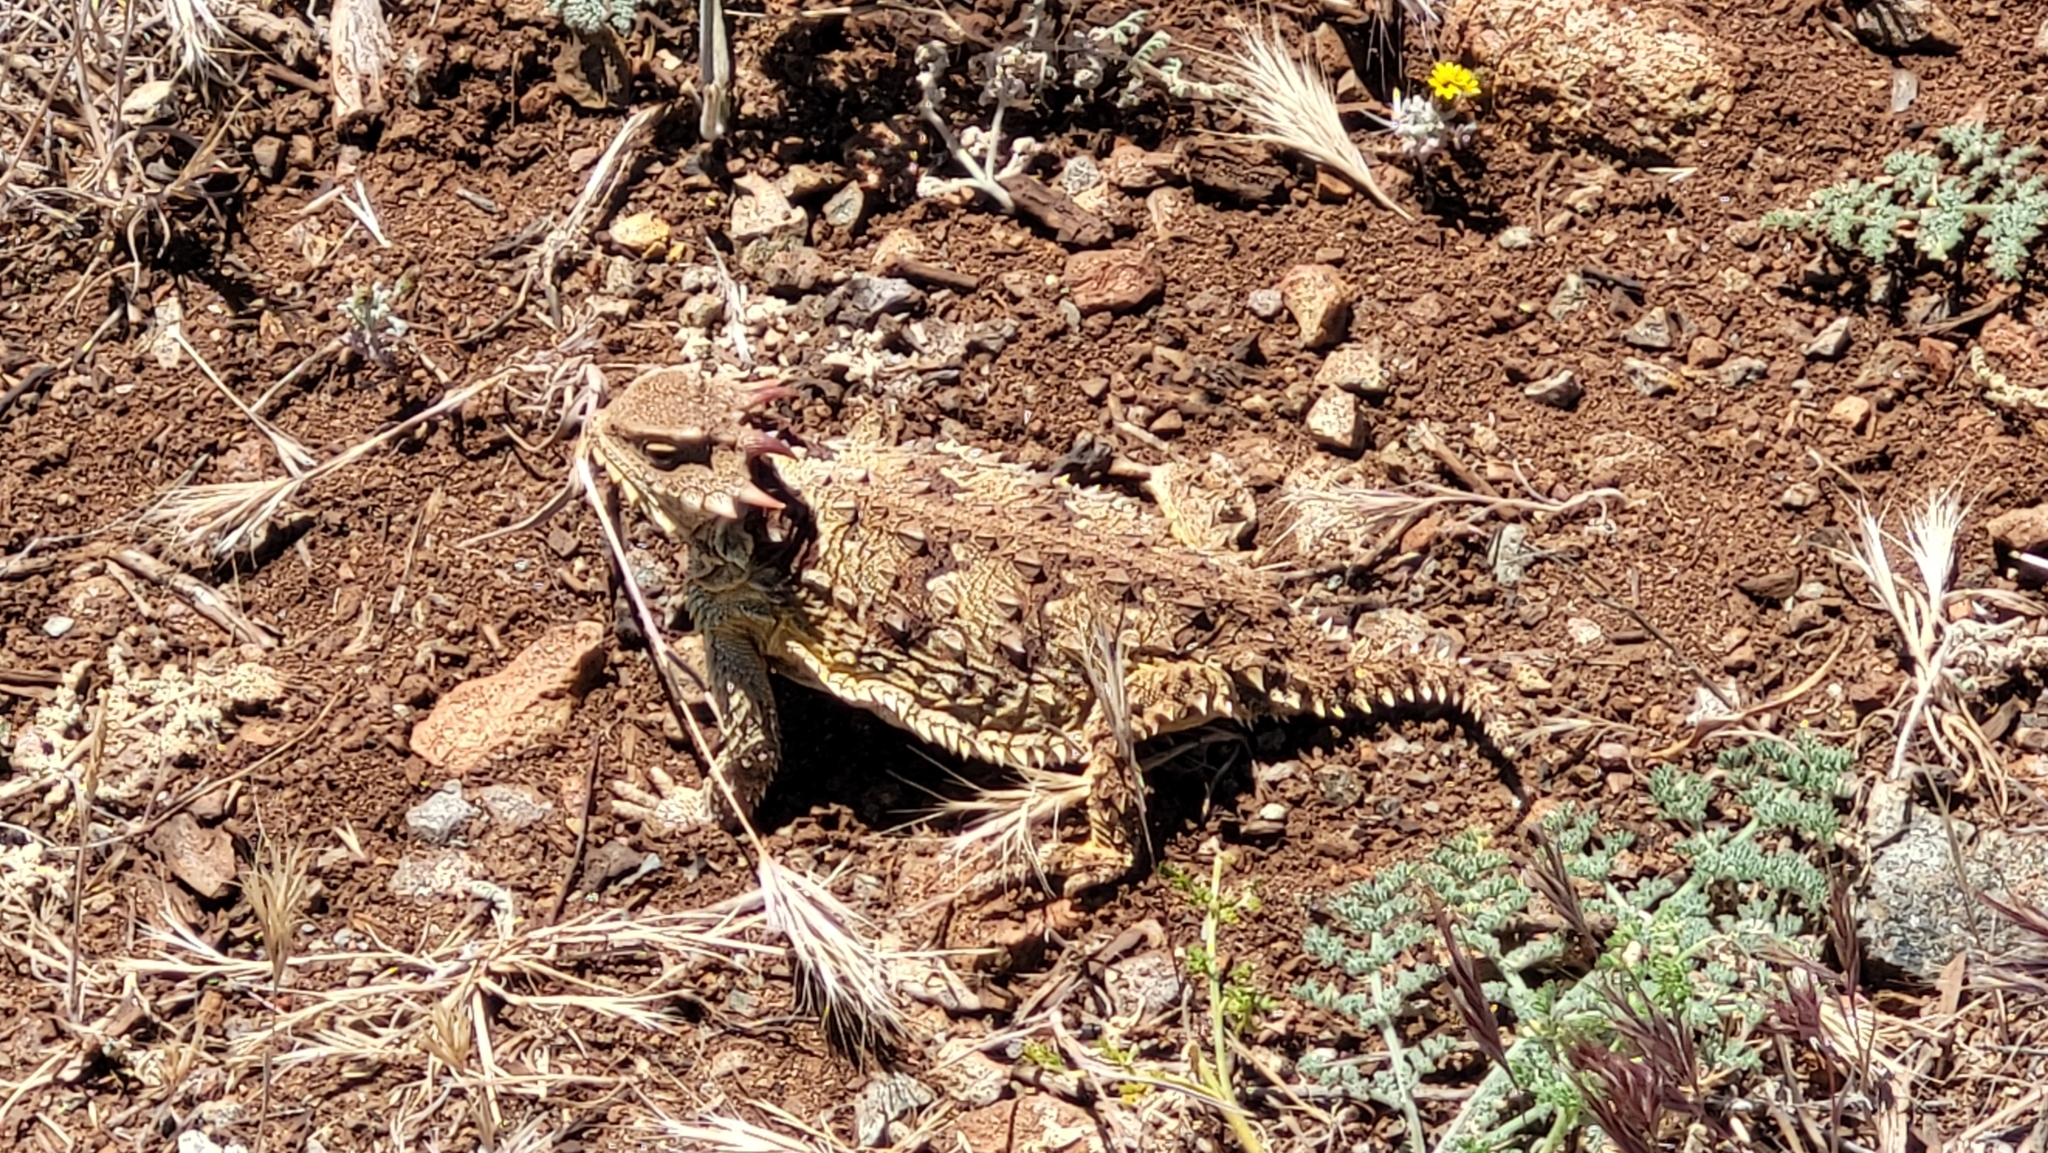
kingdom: Animalia
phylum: Chordata
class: Squamata
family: Phrynosomatidae
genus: Phrynosoma
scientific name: Phrynosoma blainvillii
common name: San diego horned lizard
